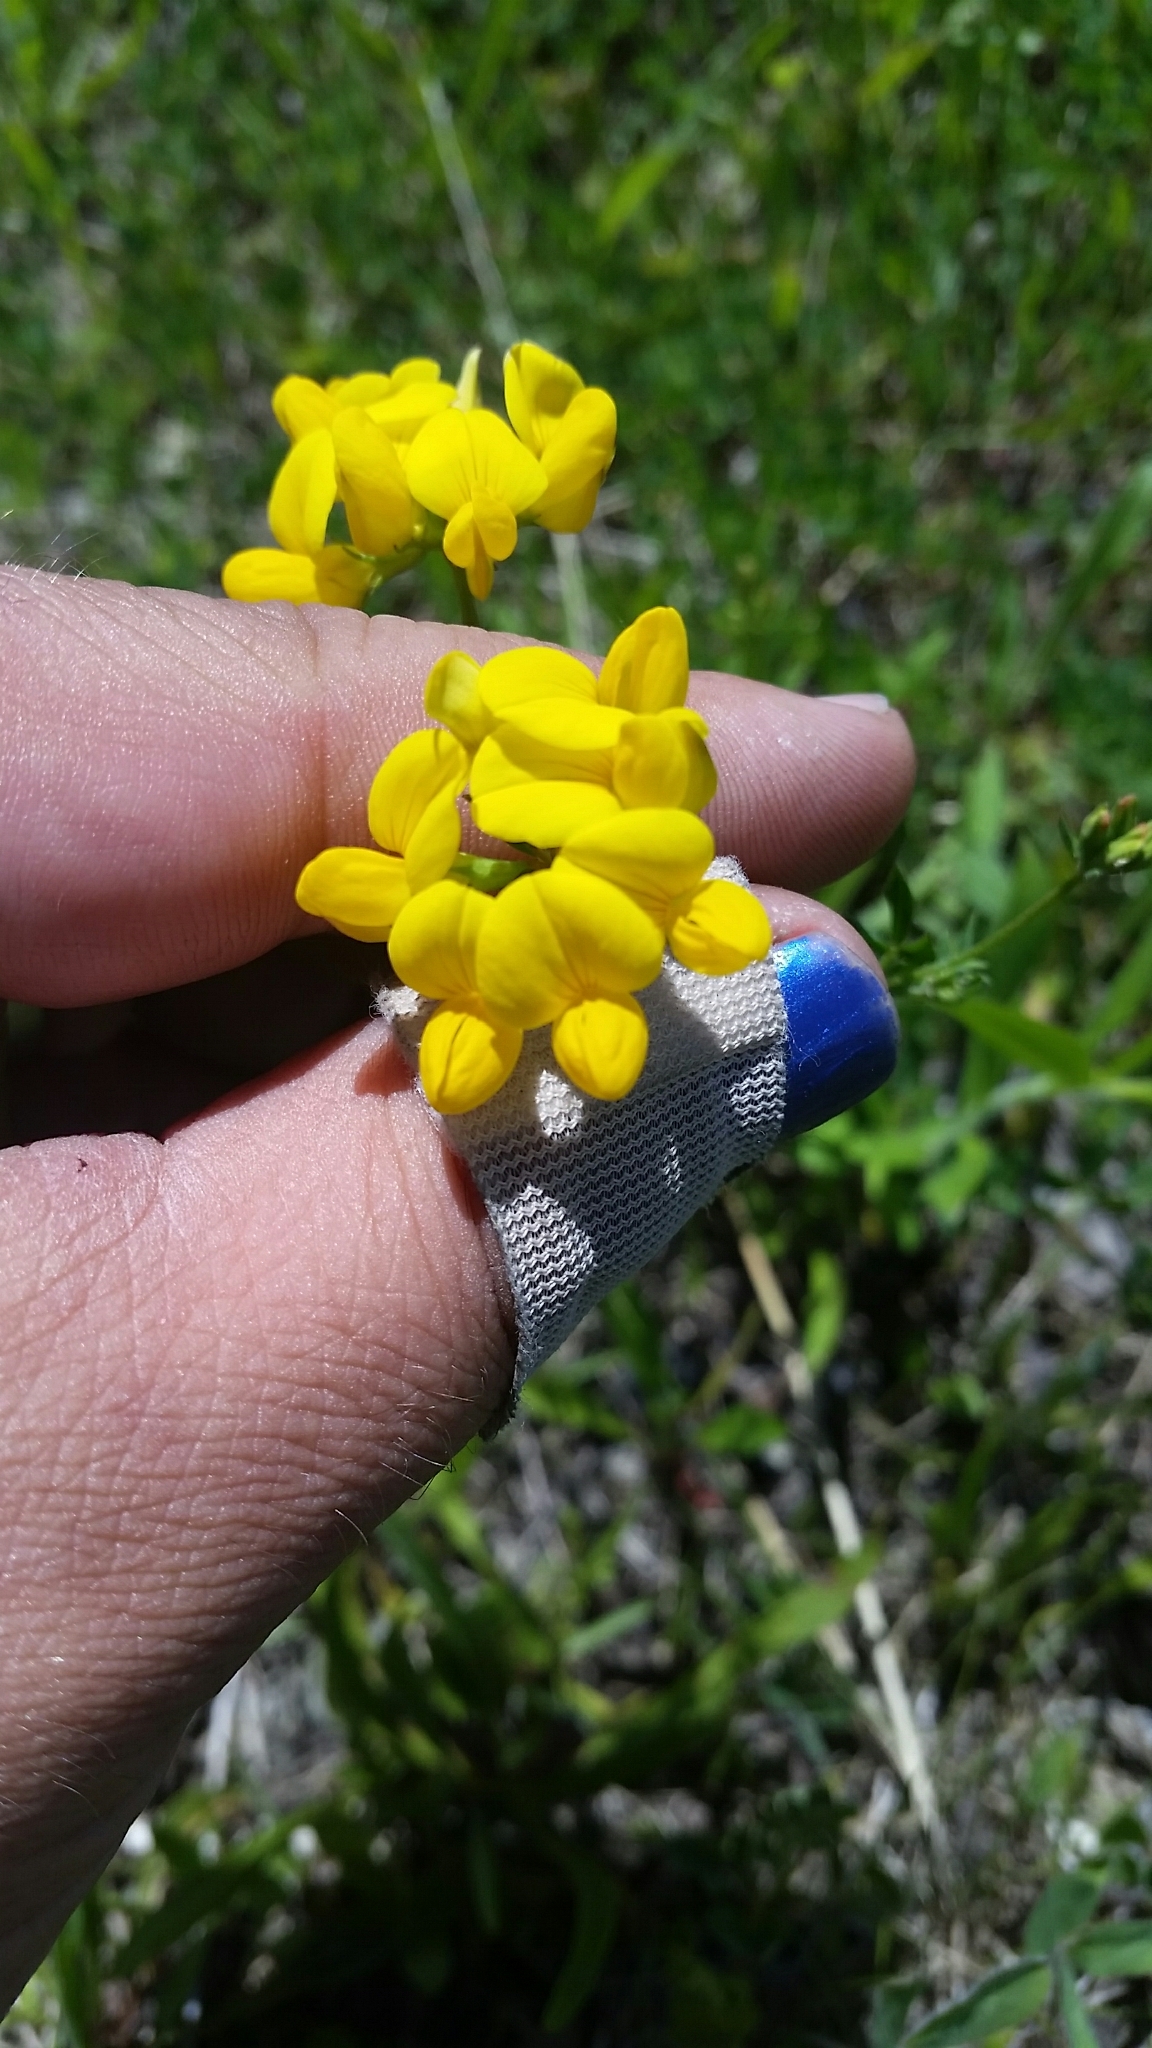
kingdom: Plantae
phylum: Tracheophyta
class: Magnoliopsida
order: Fabales
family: Fabaceae
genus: Lotus
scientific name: Lotus corniculatus
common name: Common bird's-foot-trefoil
